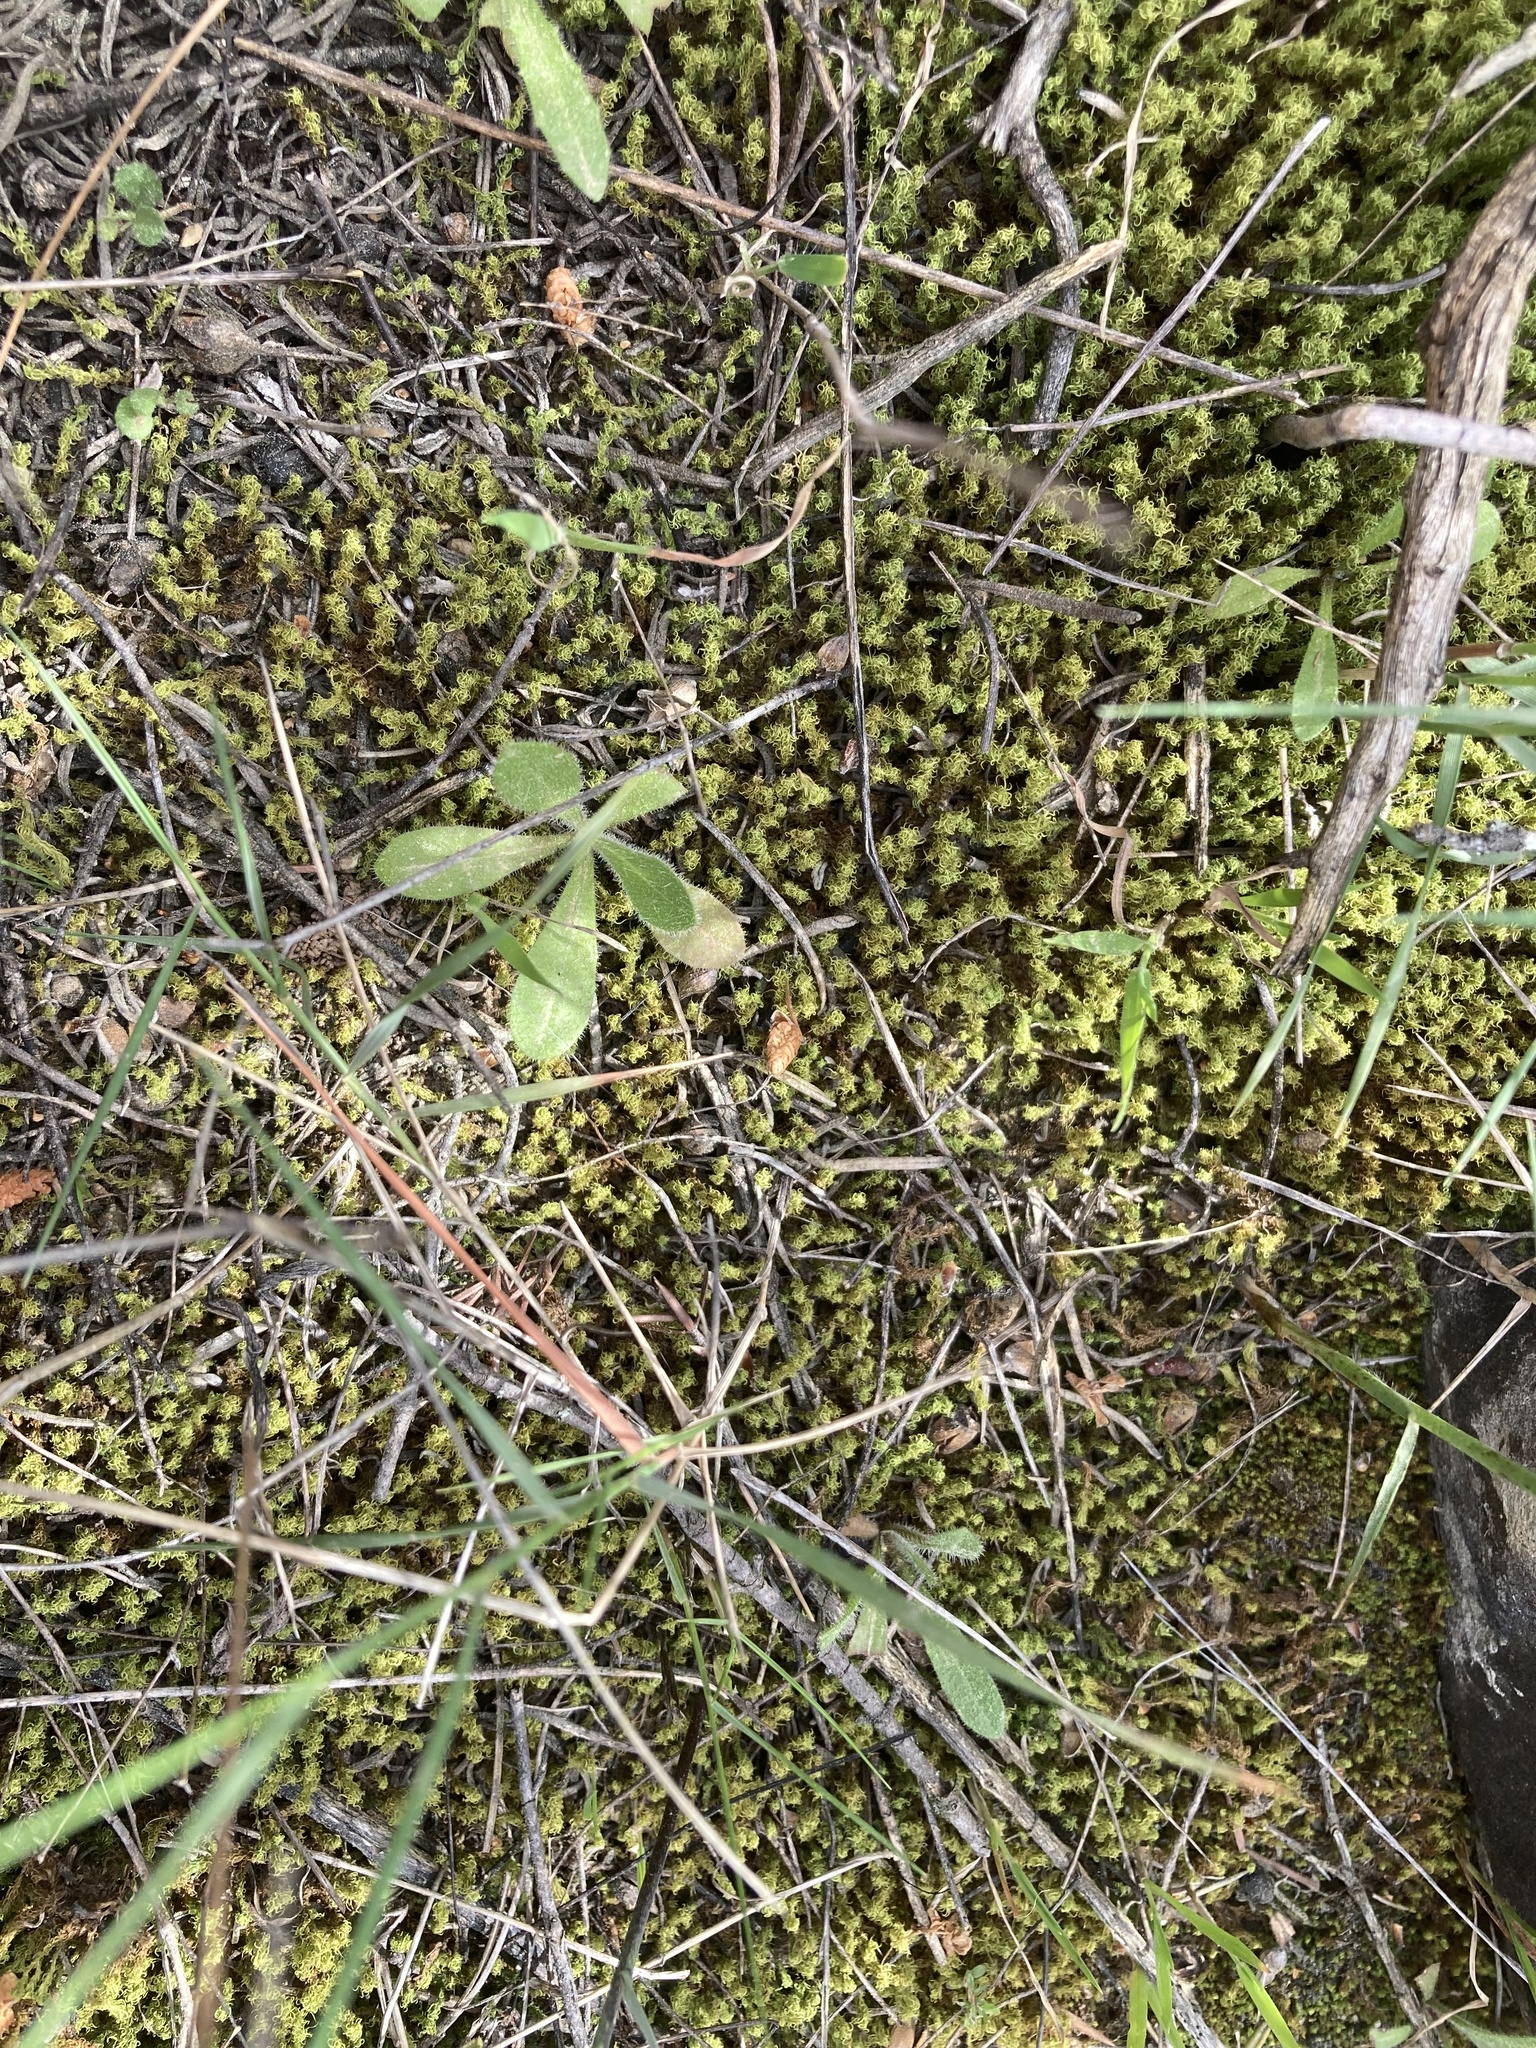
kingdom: Plantae
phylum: Bryophyta
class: Bryopsida
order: Pottiales
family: Pottiaceae
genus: Pleurochaete
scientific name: Pleurochaete squarrosa
